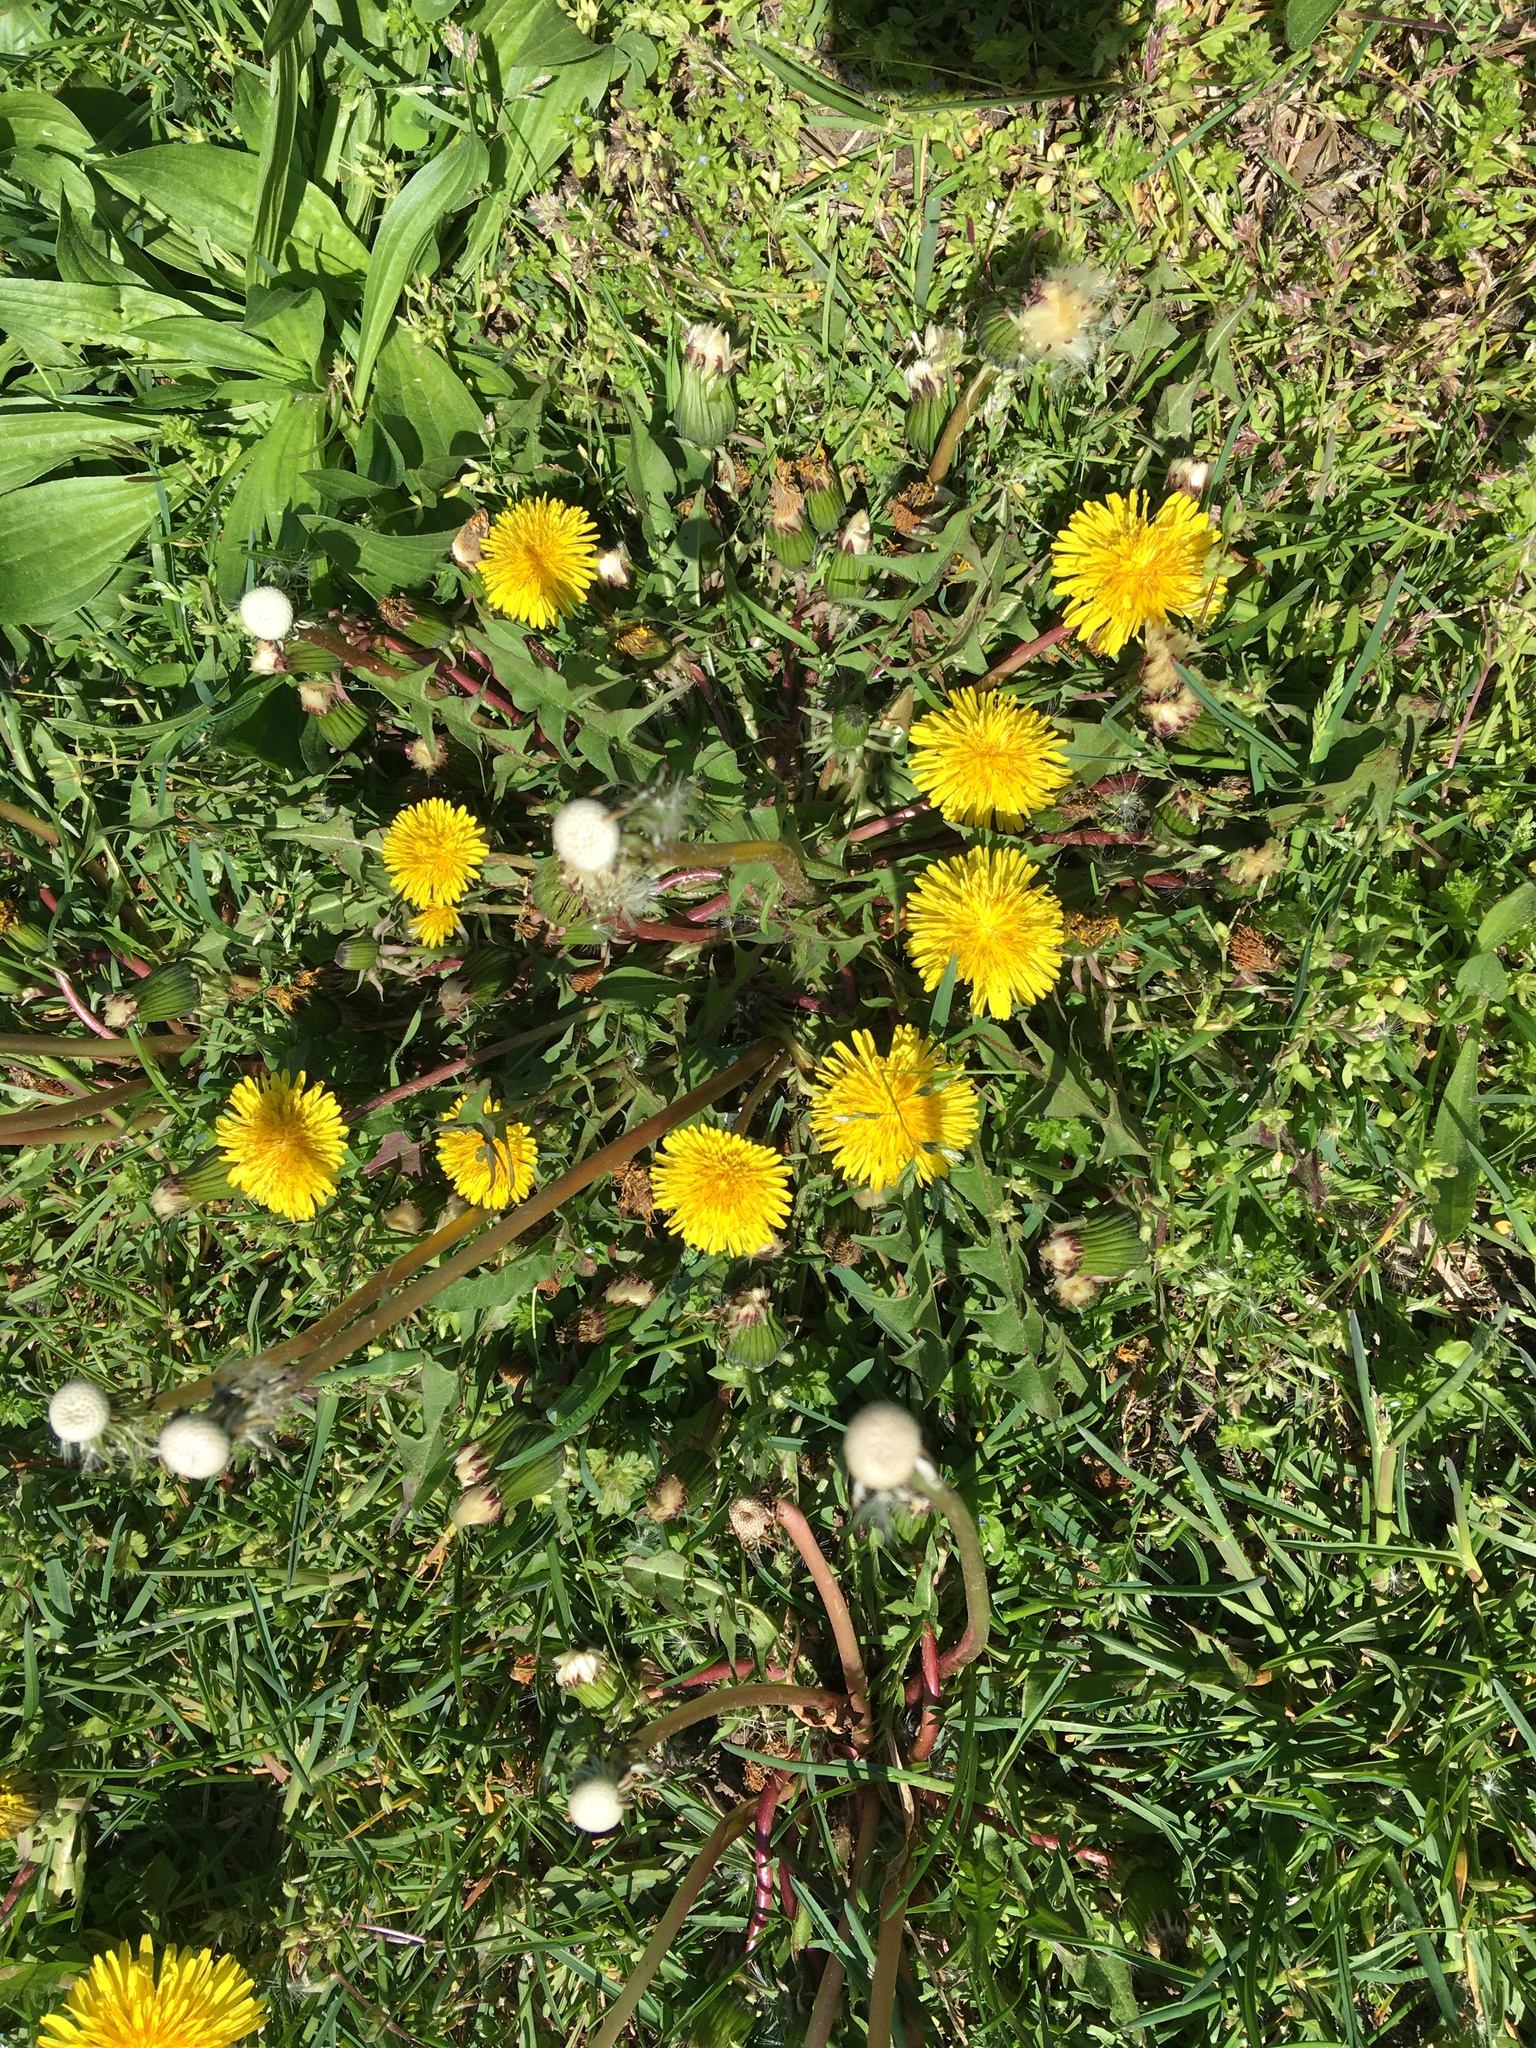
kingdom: Plantae
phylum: Tracheophyta
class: Magnoliopsida
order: Asterales
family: Asteraceae
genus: Taraxacum
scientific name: Taraxacum officinale
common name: Common dandelion
